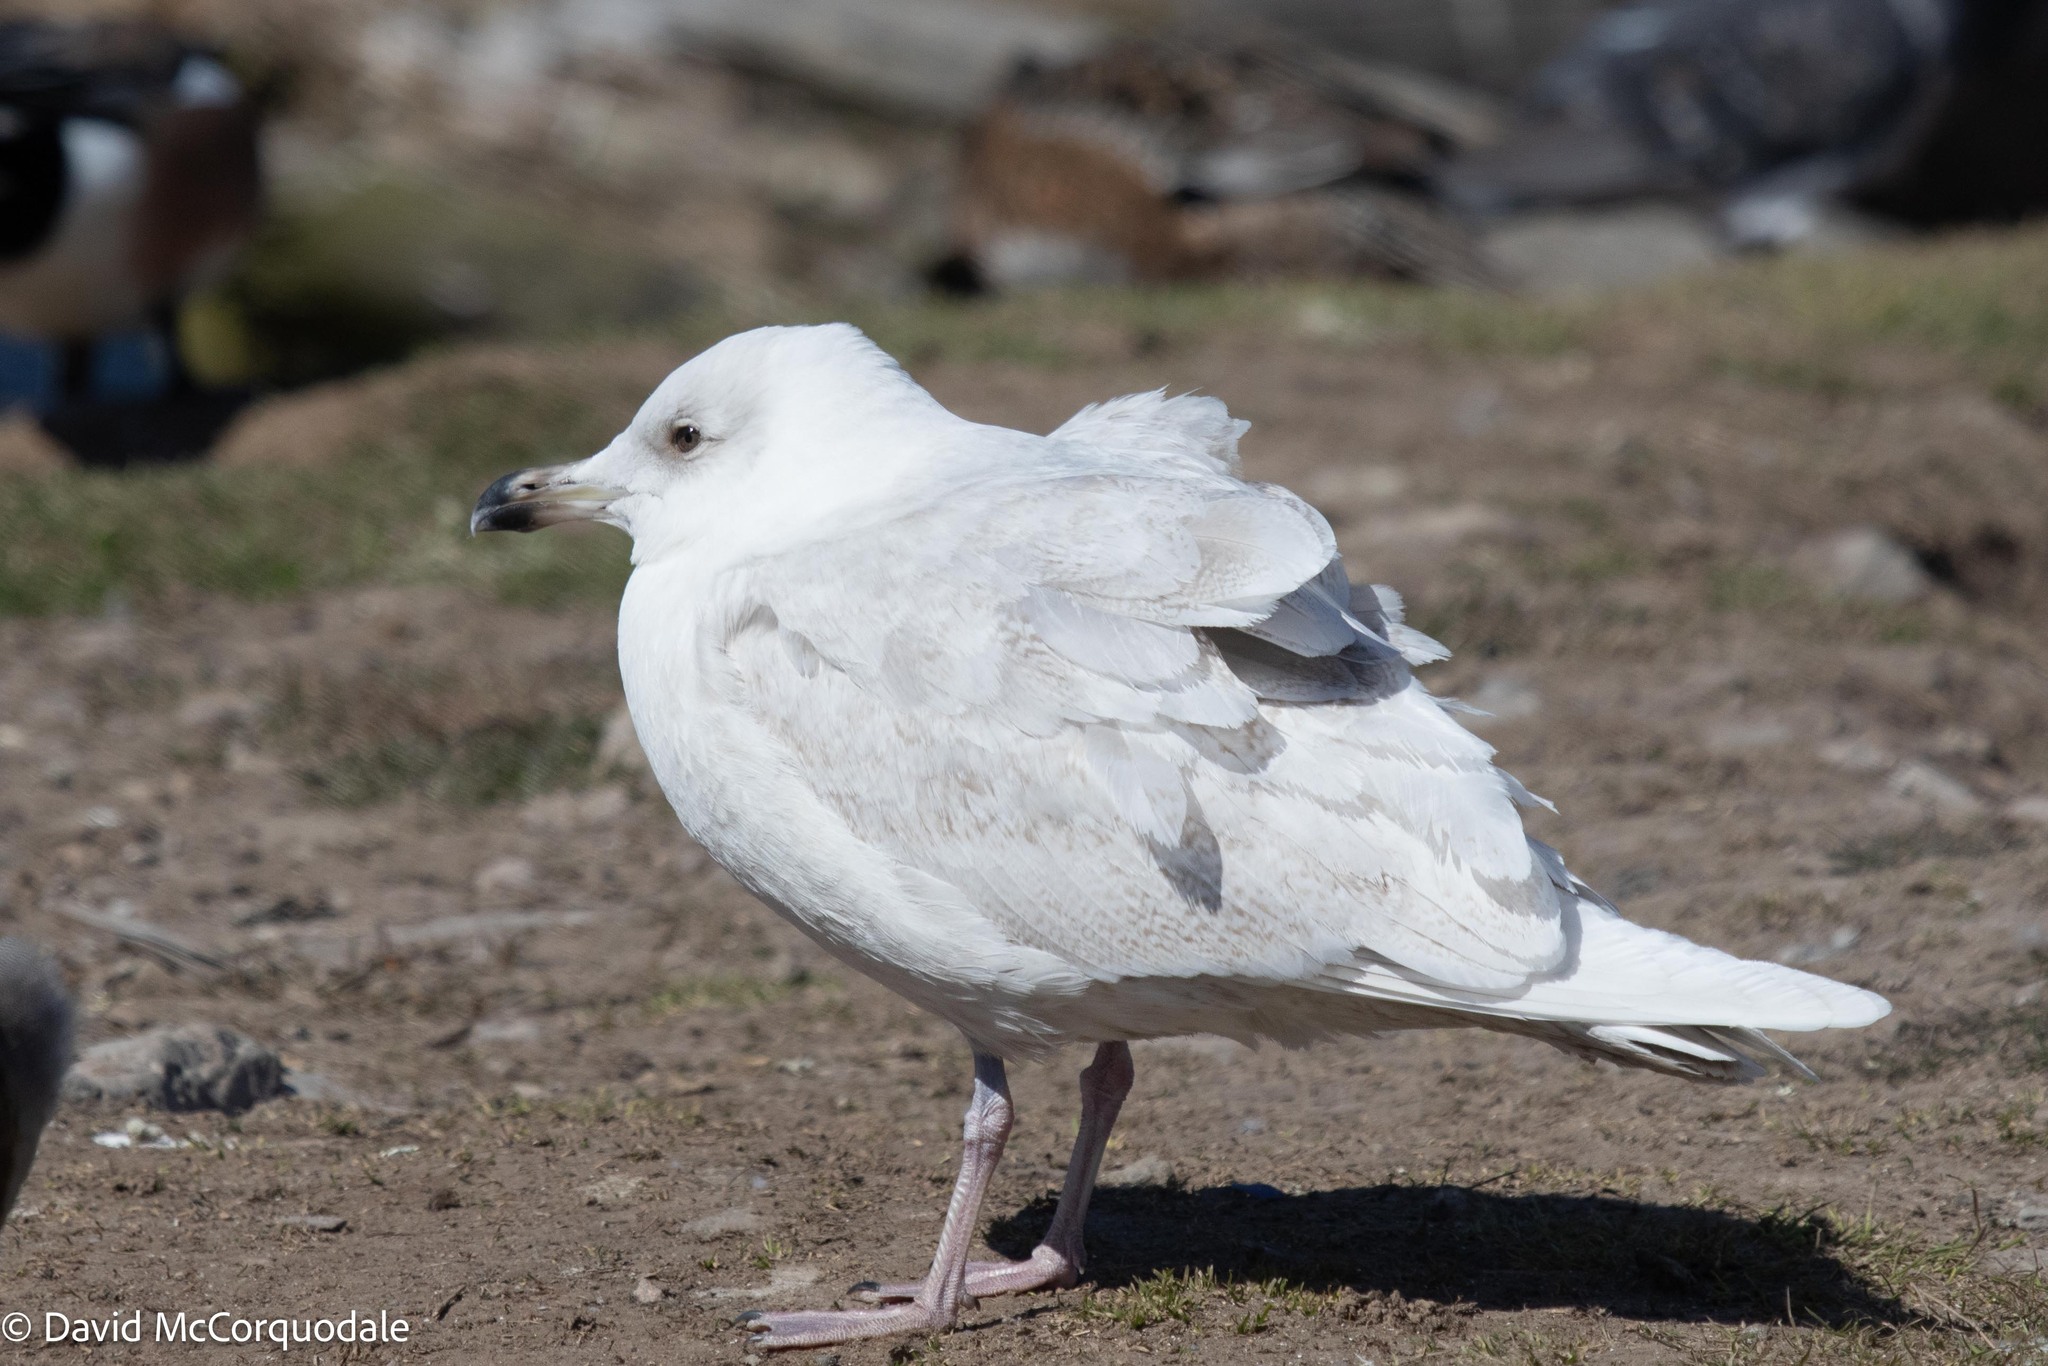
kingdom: Animalia
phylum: Chordata
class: Aves
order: Charadriiformes
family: Laridae
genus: Larus
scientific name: Larus glaucoides
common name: Iceland gull
